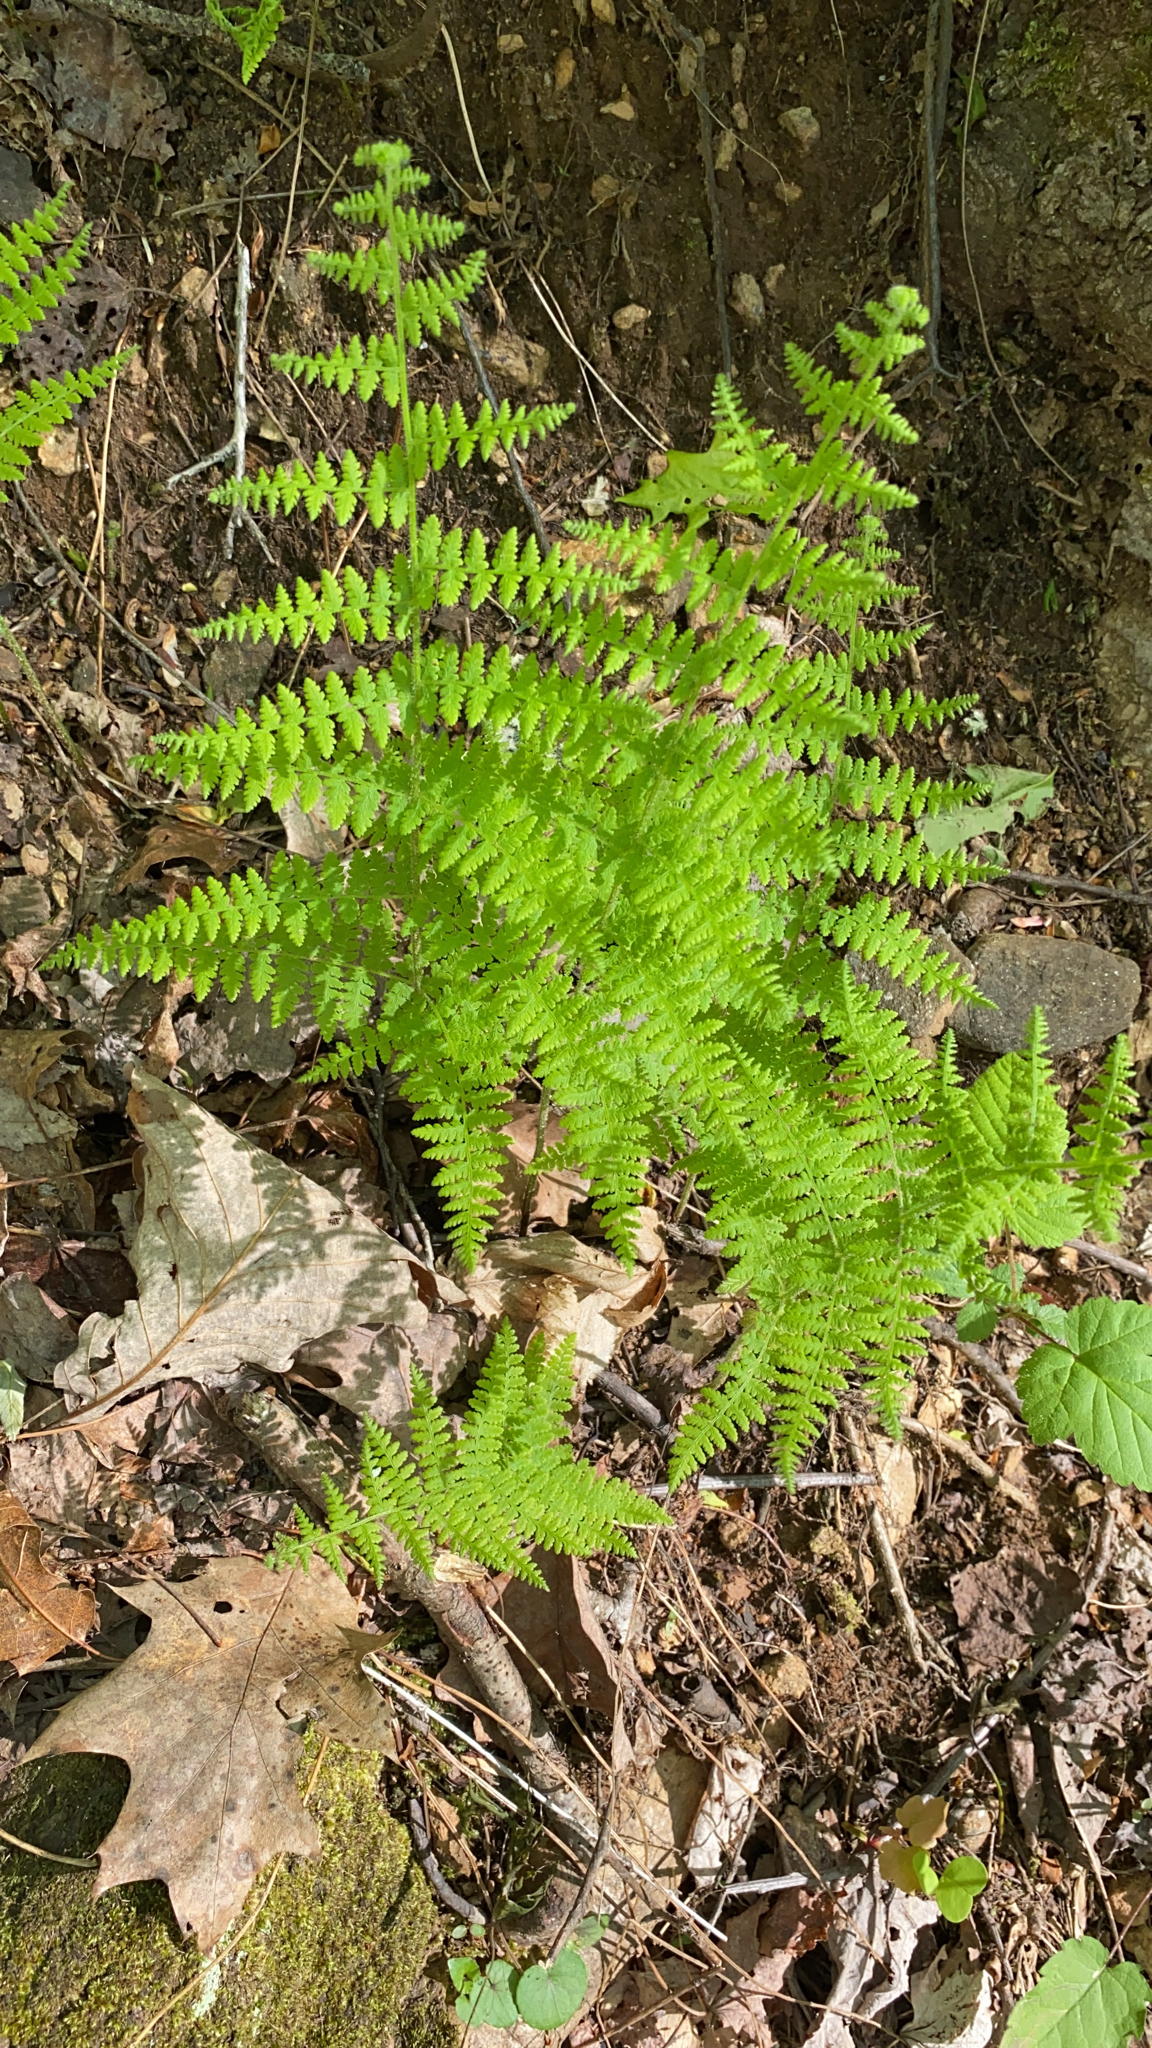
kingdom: Plantae
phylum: Tracheophyta
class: Polypodiopsida
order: Polypodiales
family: Dennstaedtiaceae
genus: Sitobolium
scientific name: Sitobolium punctilobum
